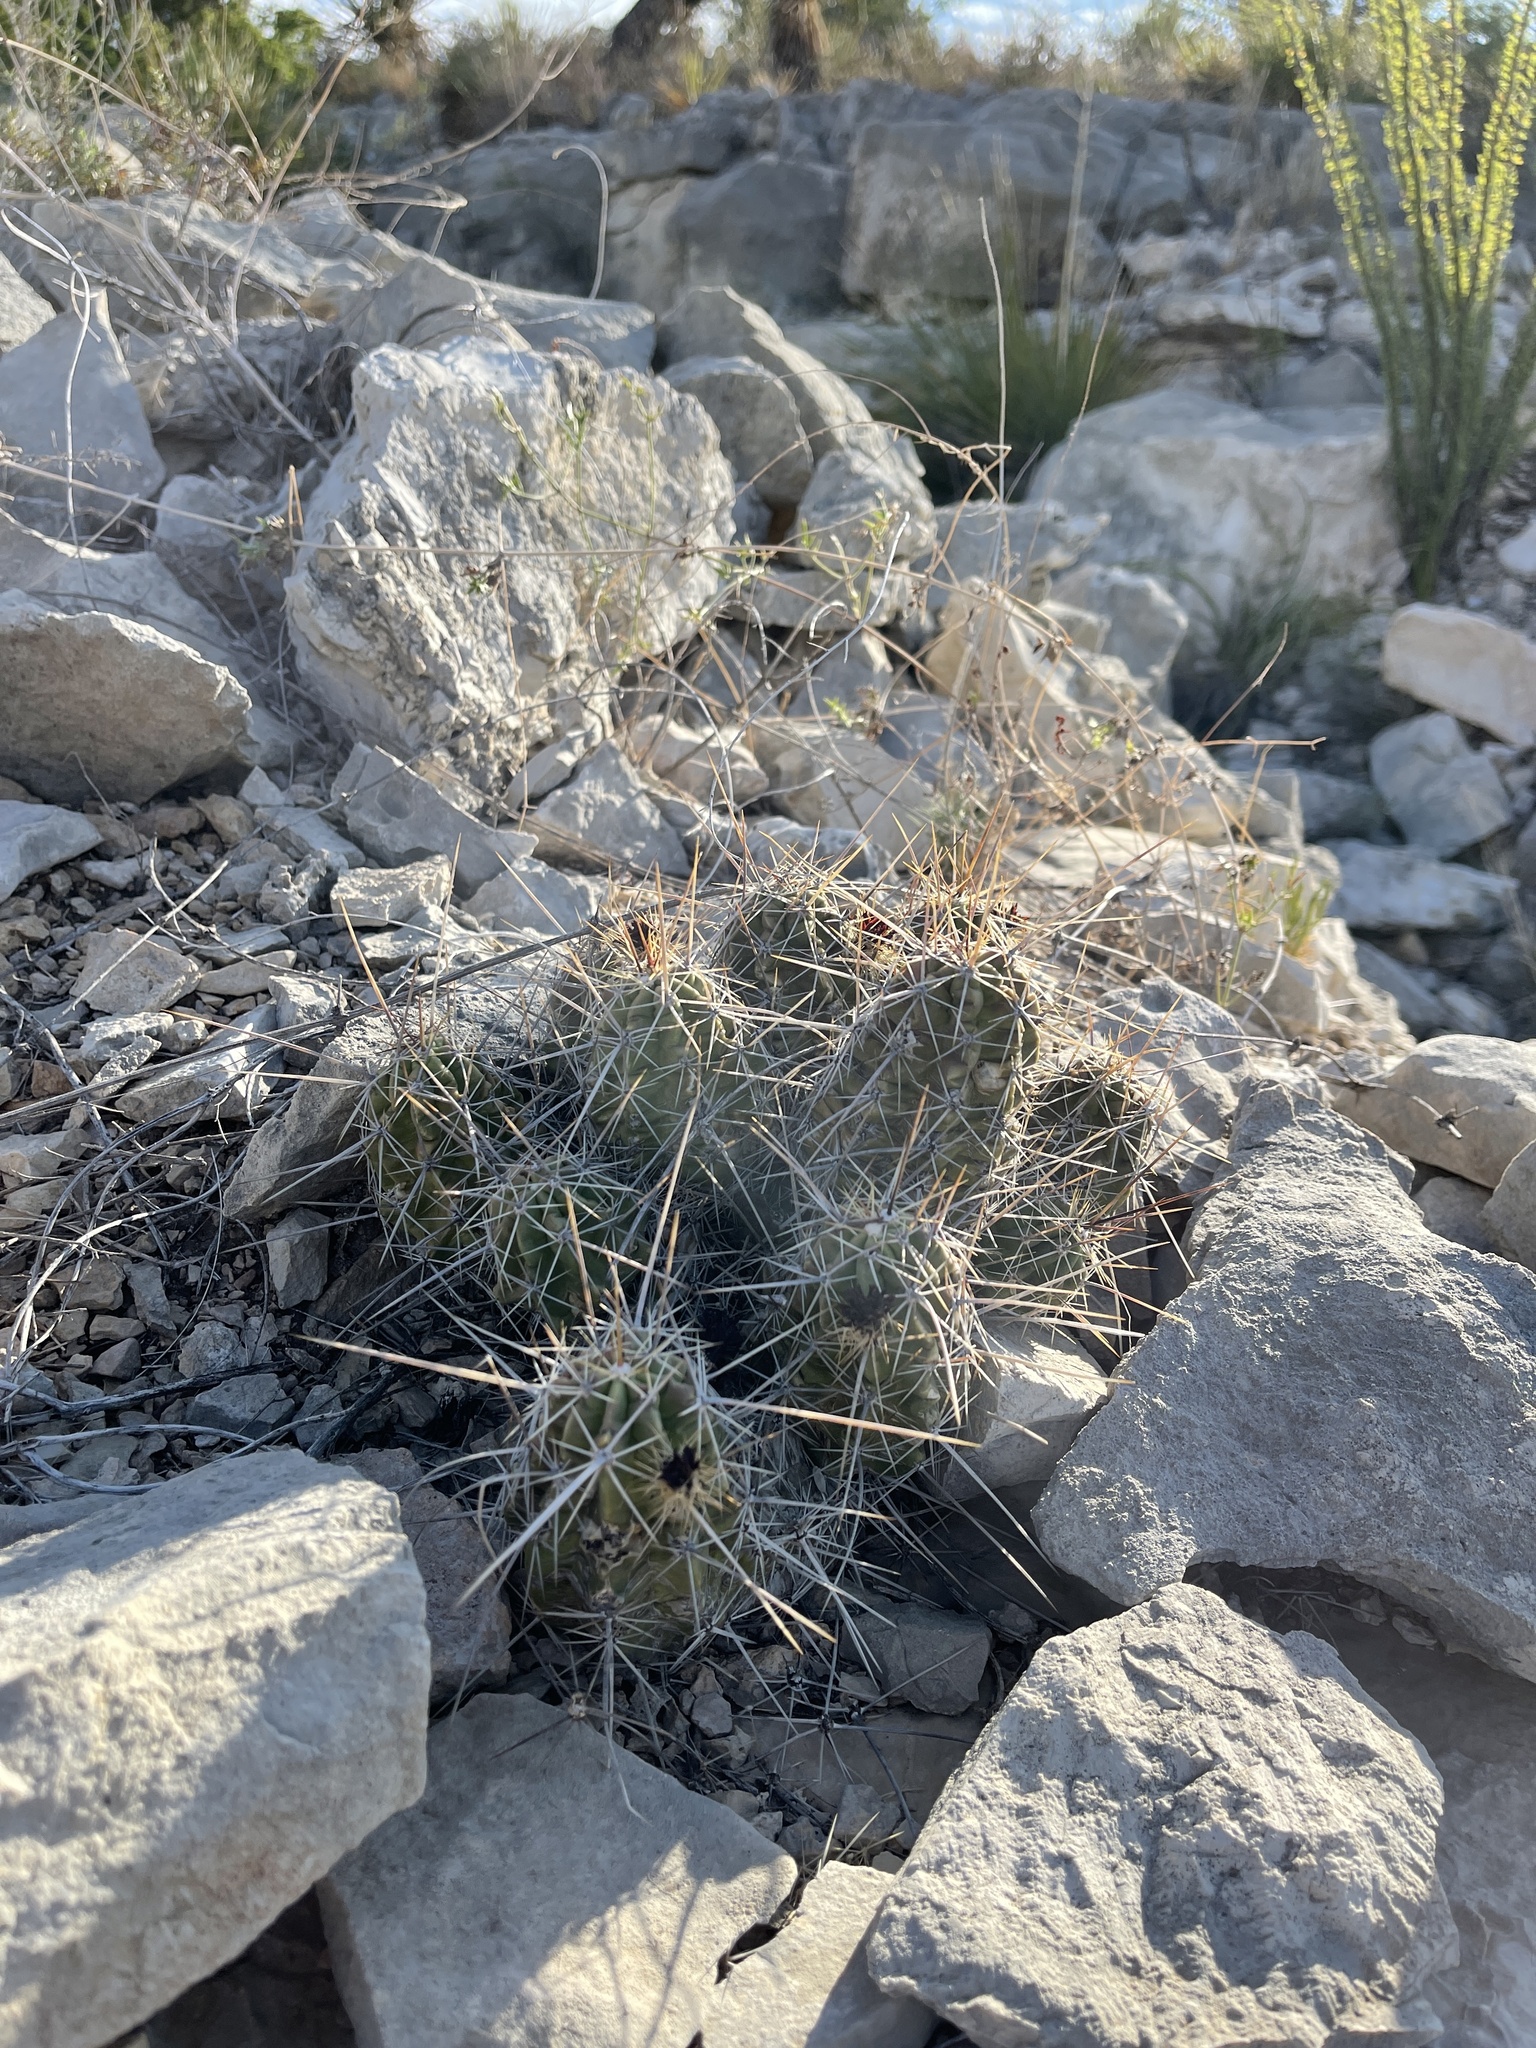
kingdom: Plantae
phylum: Tracheophyta
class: Magnoliopsida
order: Caryophyllales
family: Cactaceae
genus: Echinocereus
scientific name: Echinocereus enneacanthus
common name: Pitaya
